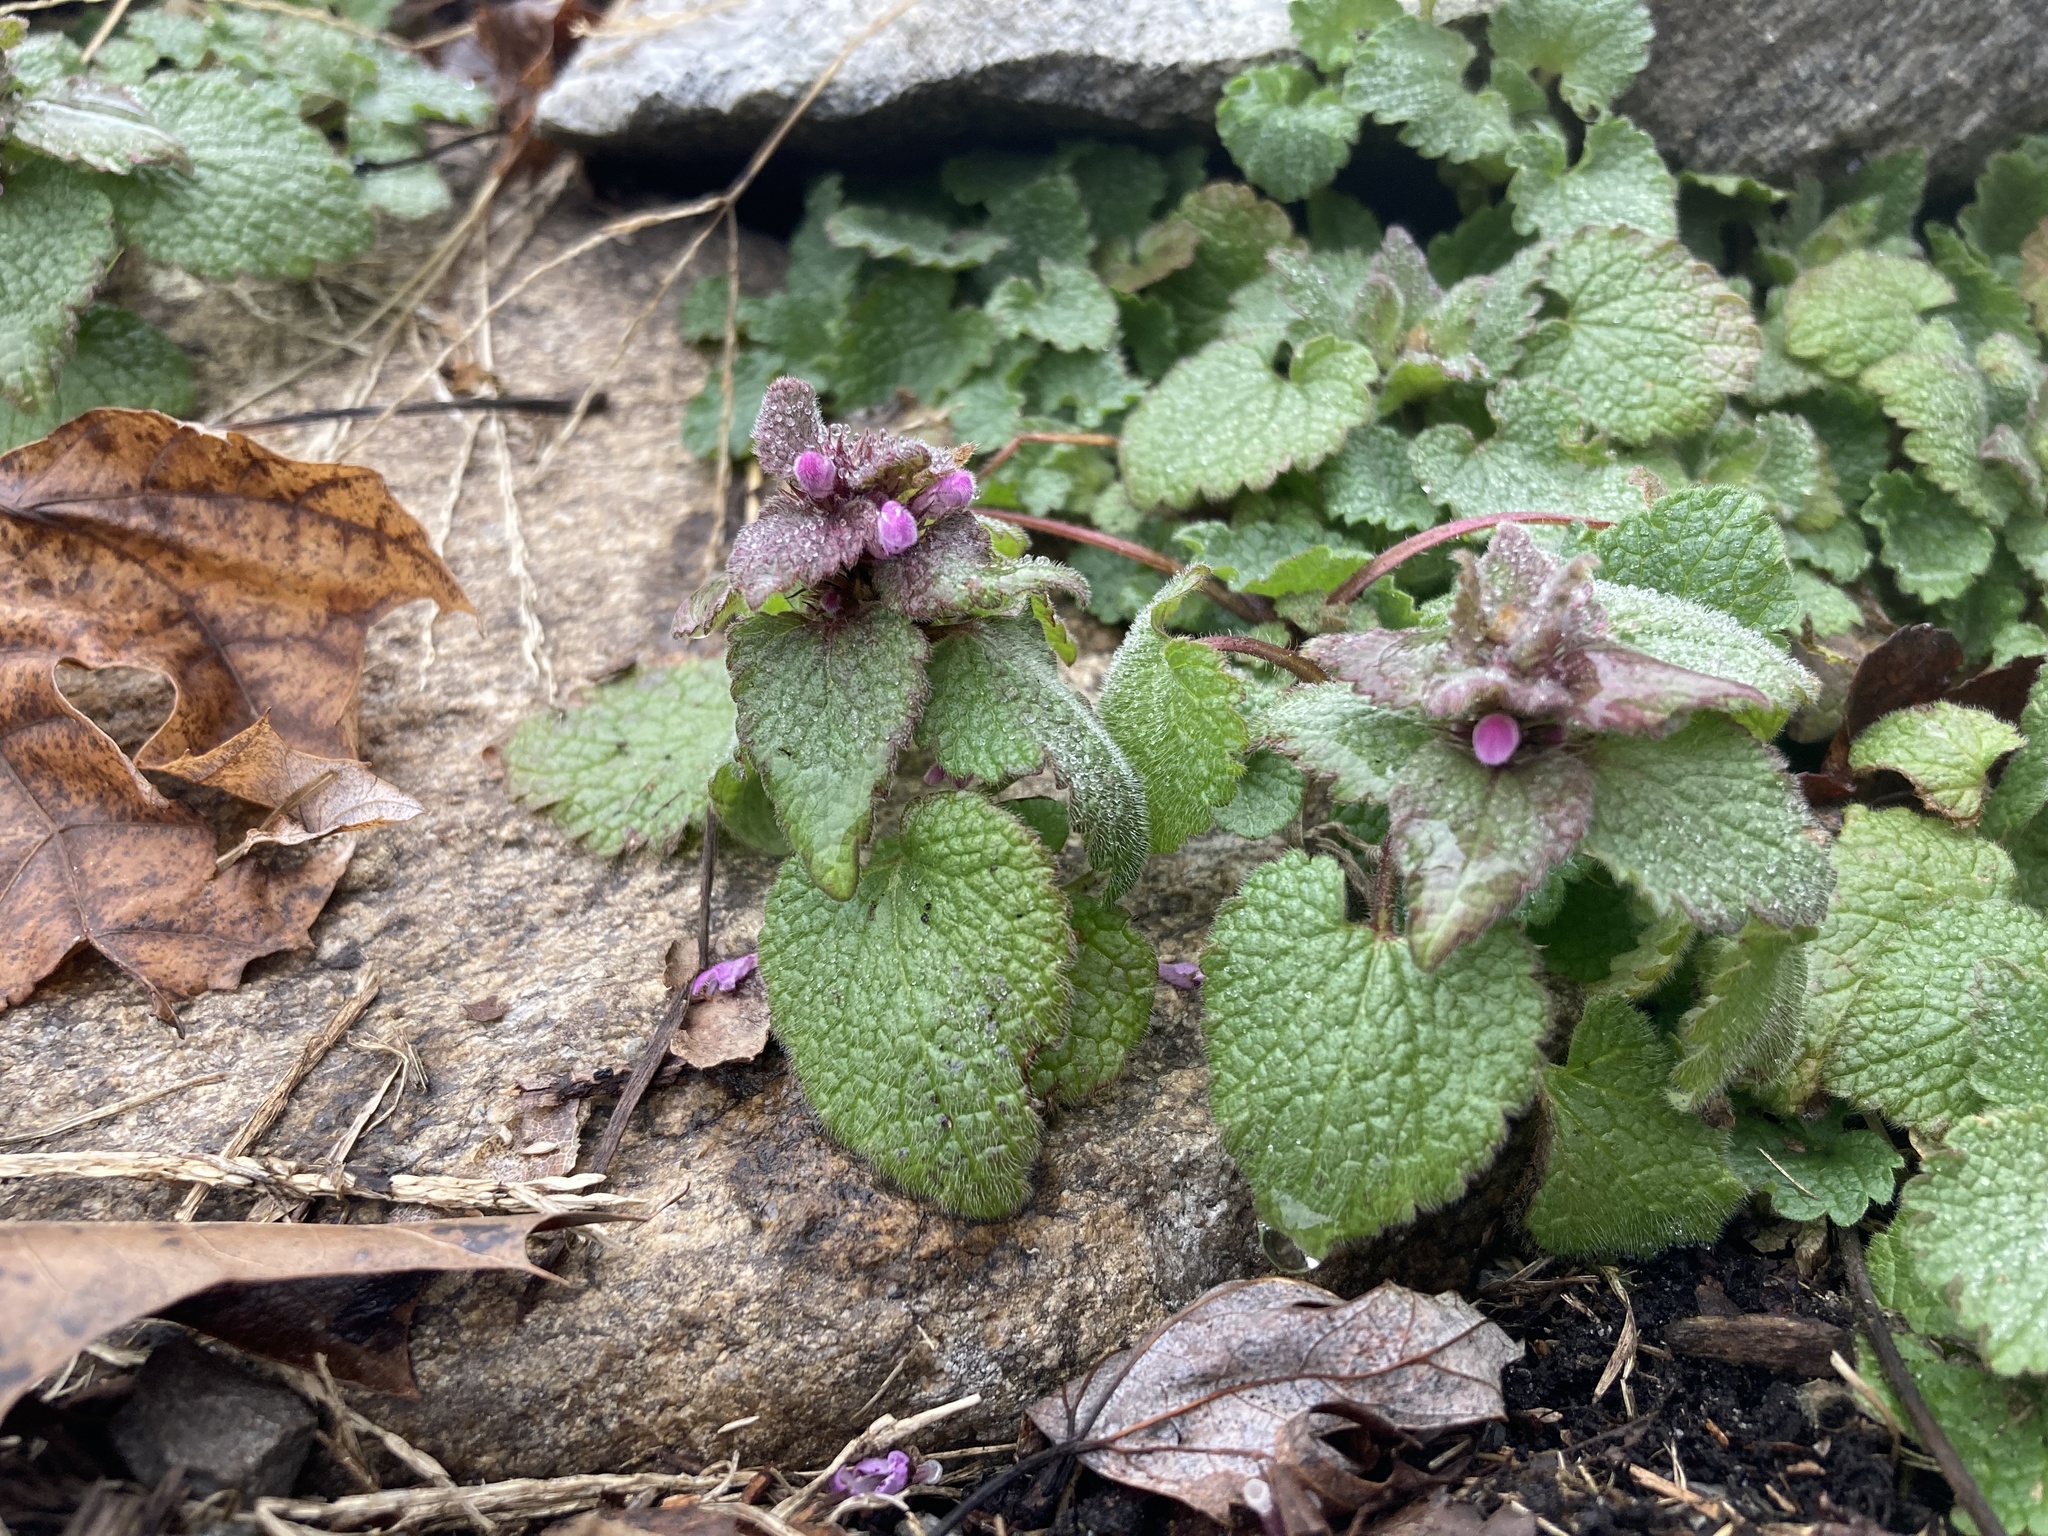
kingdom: Plantae
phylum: Tracheophyta
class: Magnoliopsida
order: Lamiales
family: Lamiaceae
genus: Lamium
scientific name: Lamium purpureum
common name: Red dead-nettle
